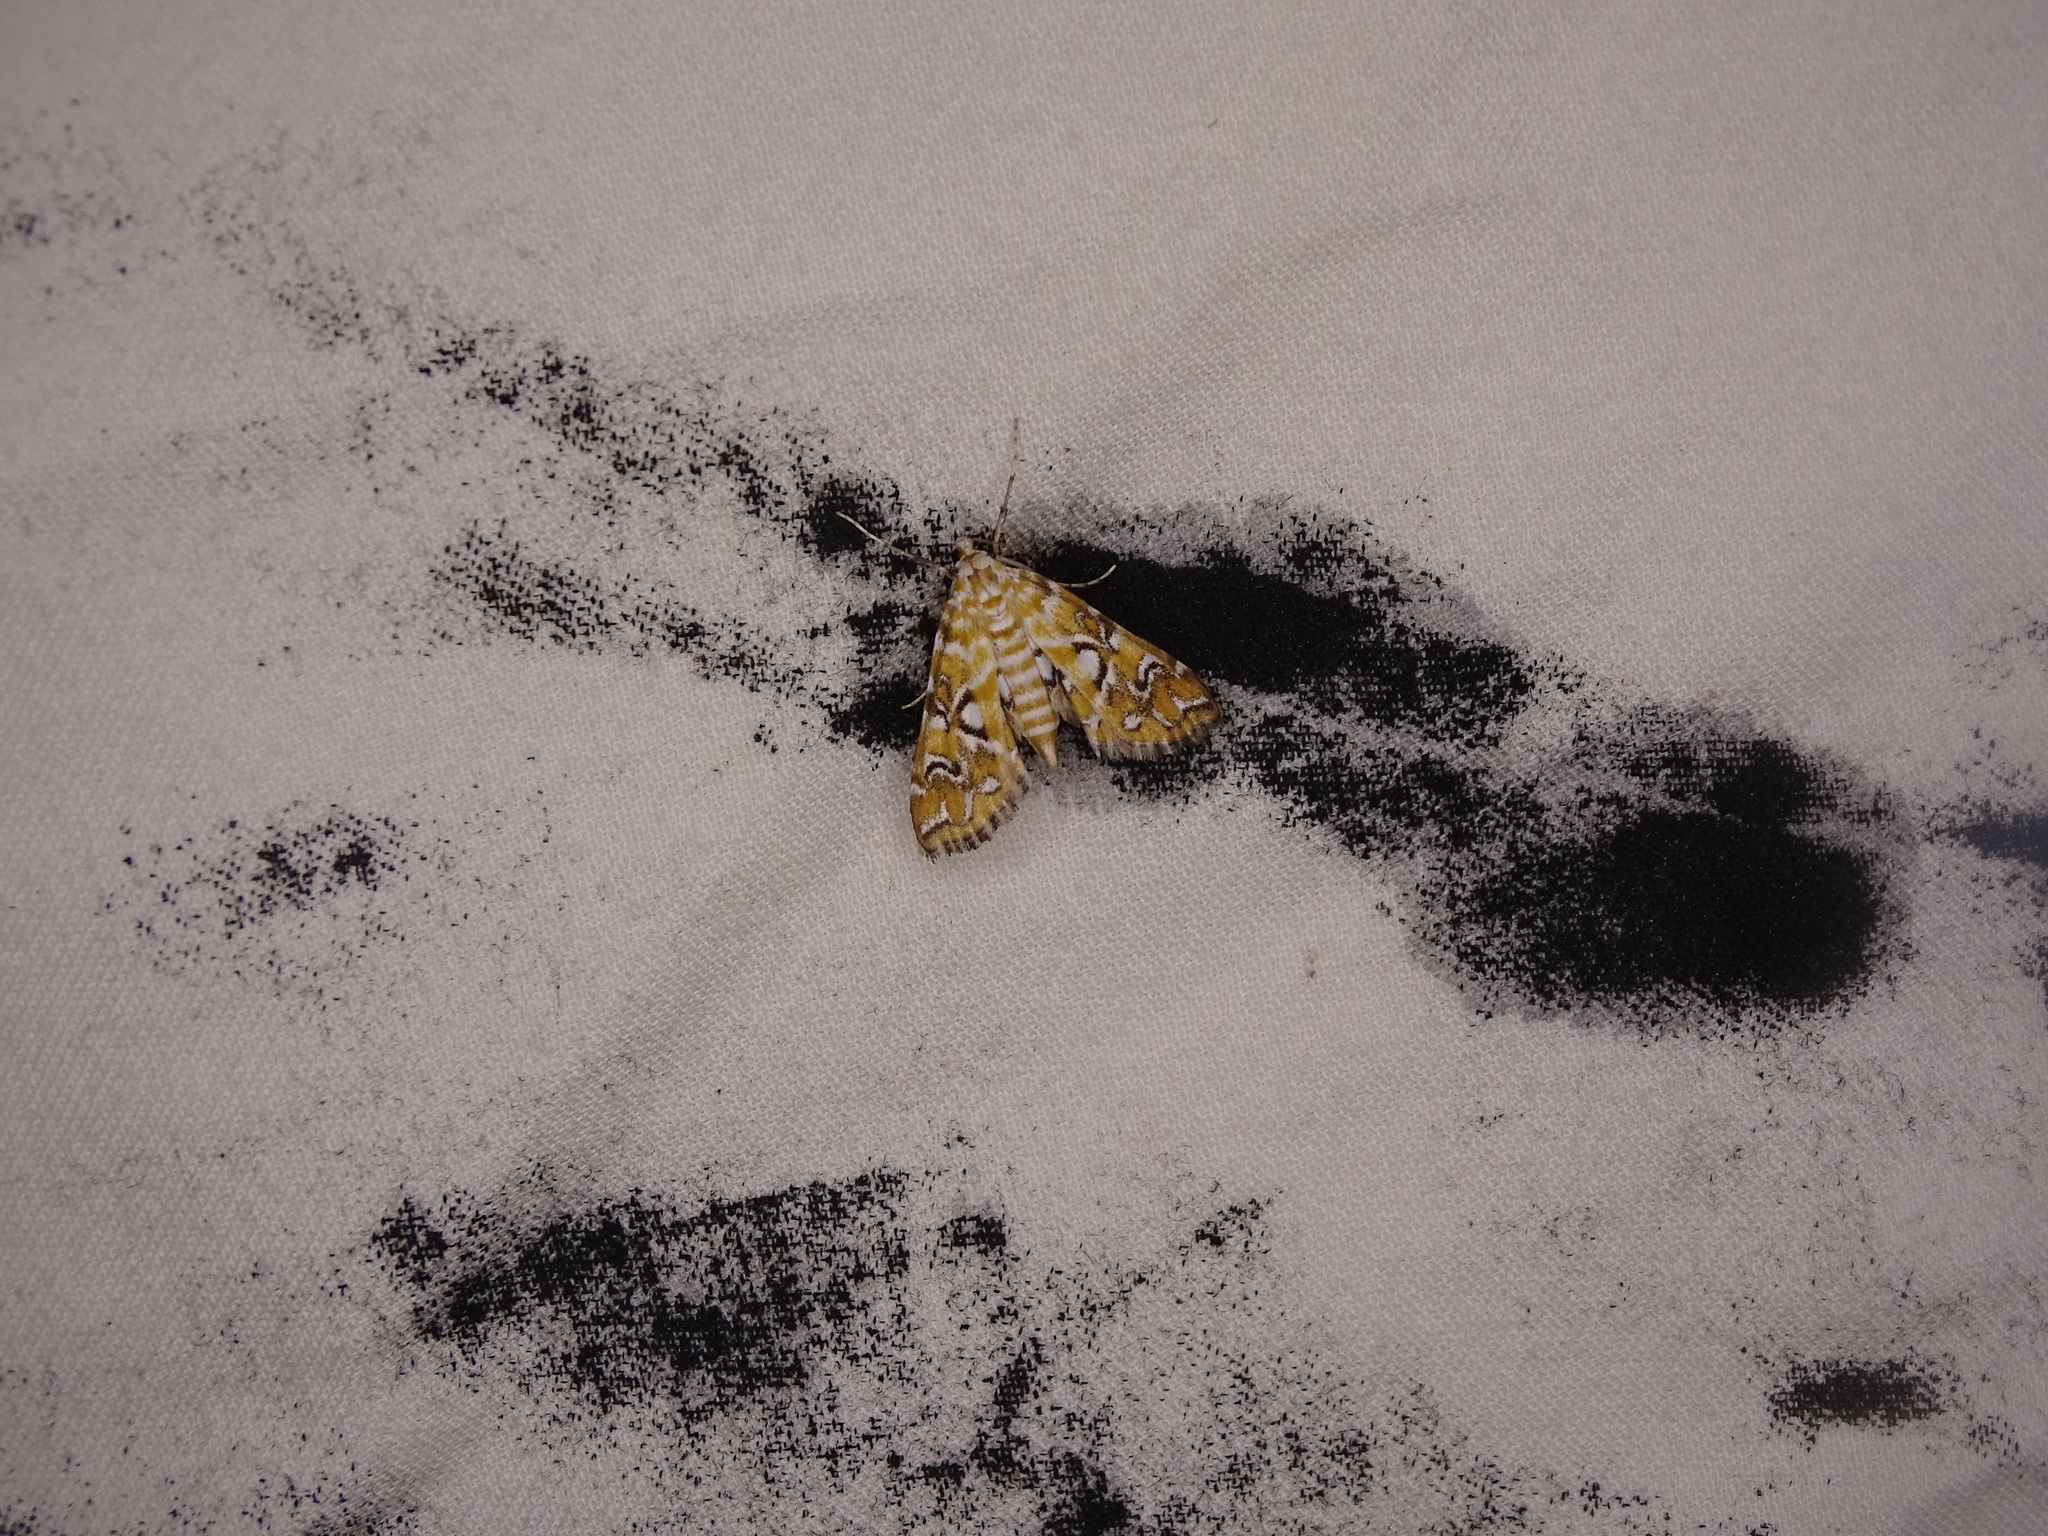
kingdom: Animalia
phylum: Arthropoda
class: Insecta
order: Lepidoptera
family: Crambidae
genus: Elophila
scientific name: Elophila icciusalis
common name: Pondside pyralid moth
